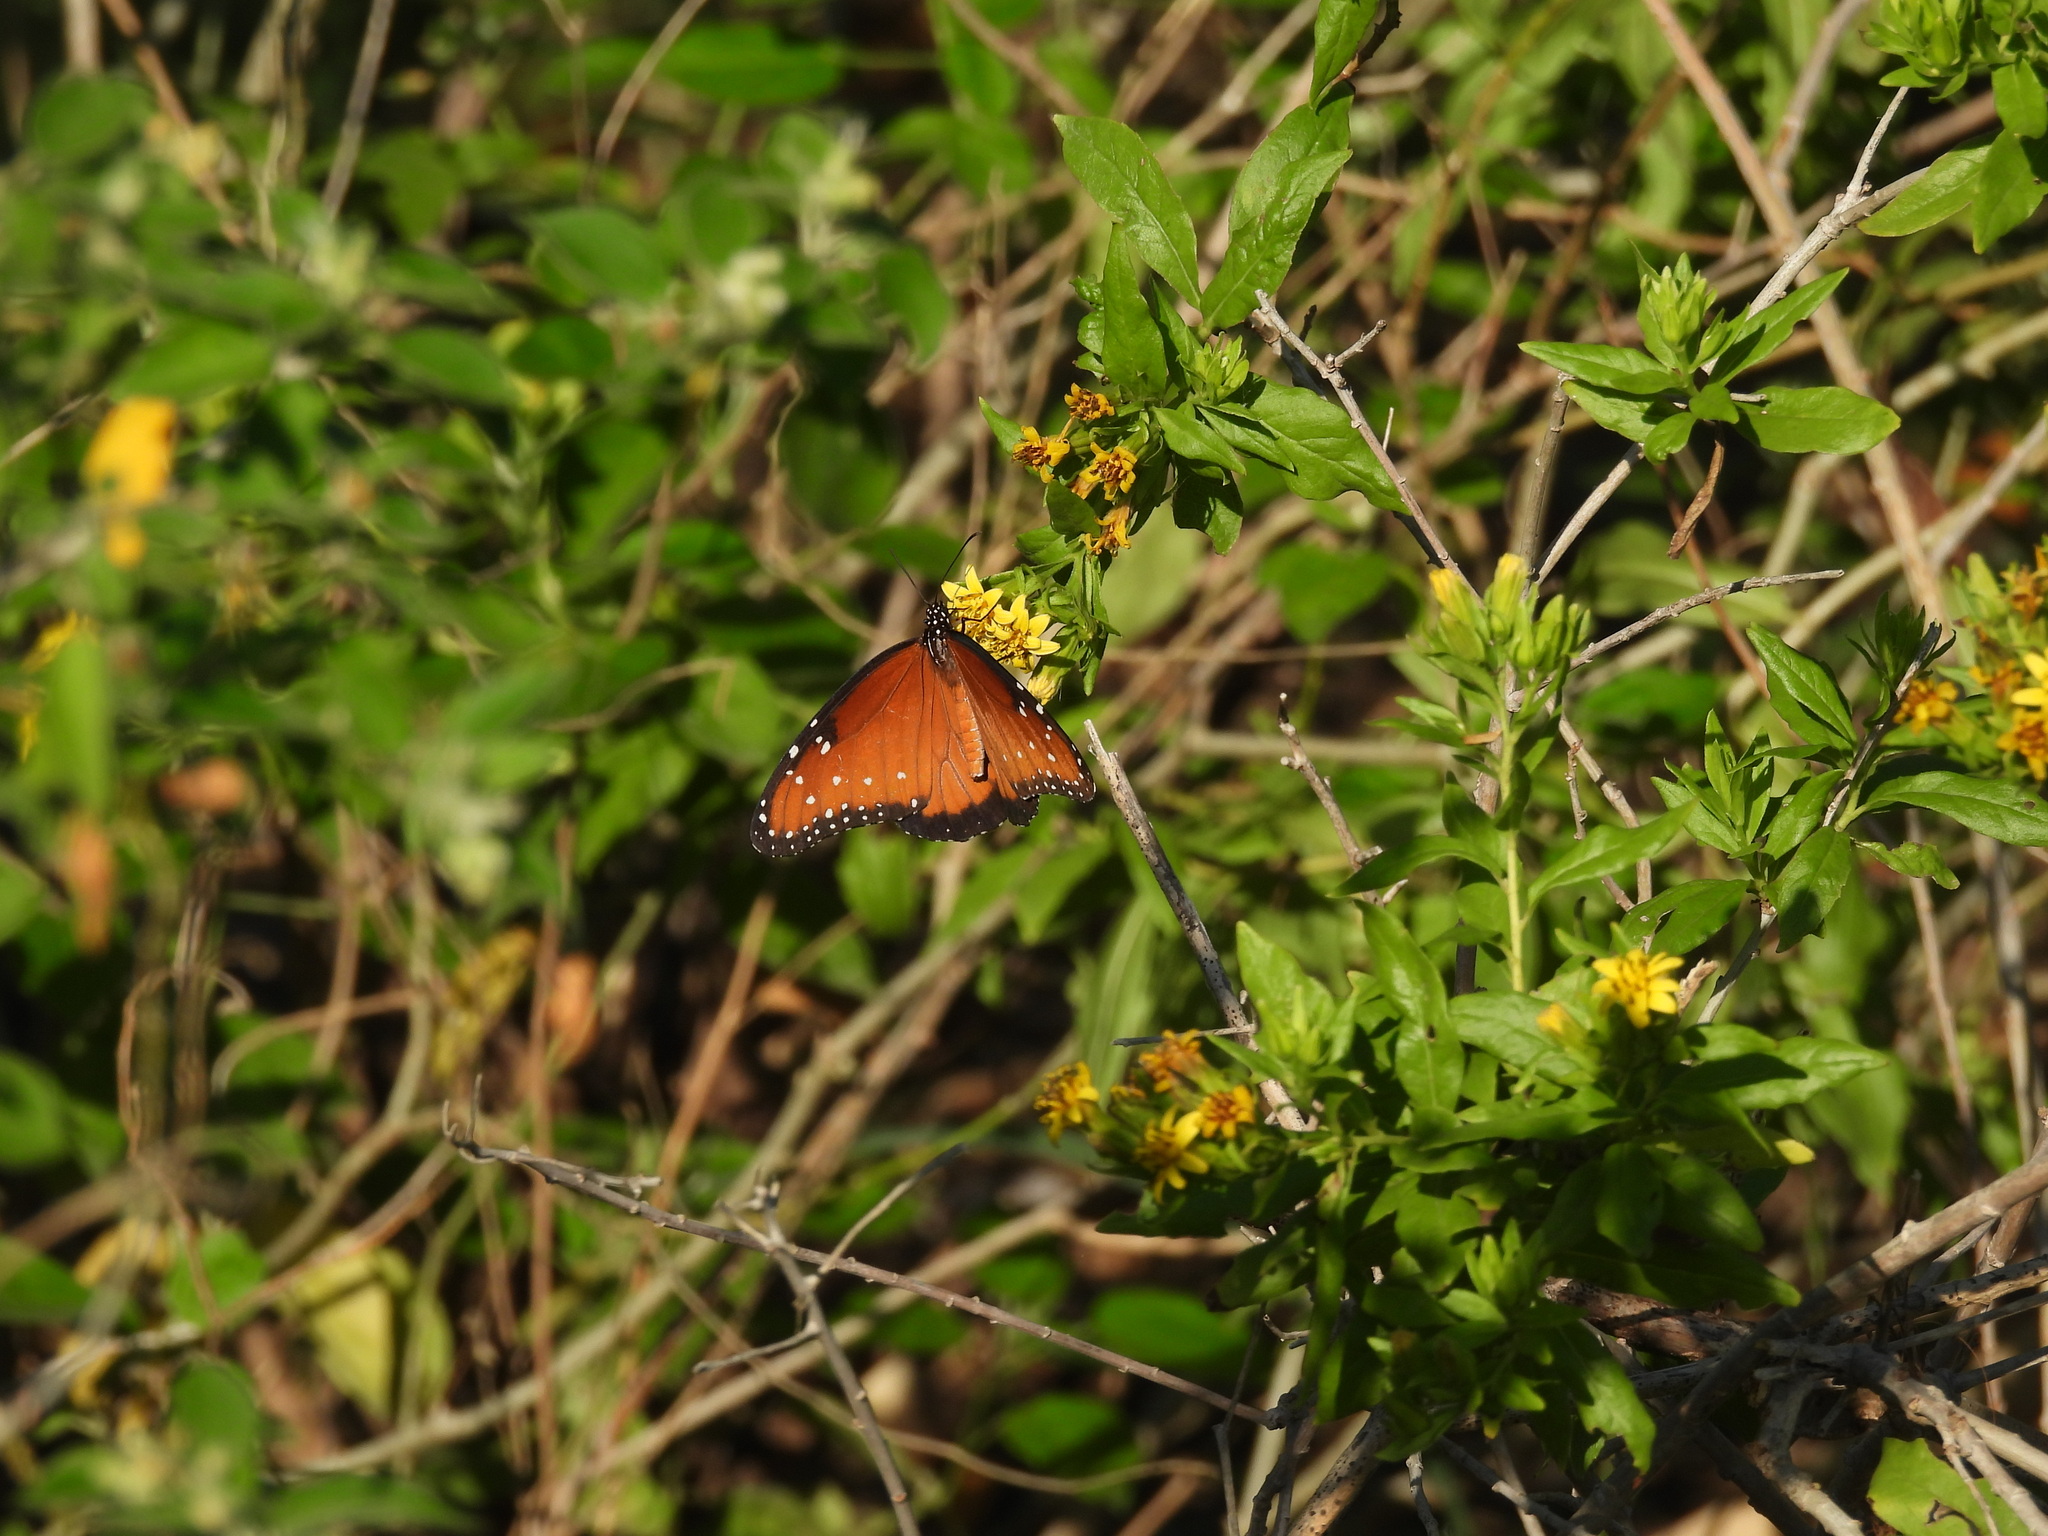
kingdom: Animalia
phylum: Arthropoda
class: Insecta
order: Lepidoptera
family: Nymphalidae
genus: Danaus
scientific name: Danaus gilippus
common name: Queen
